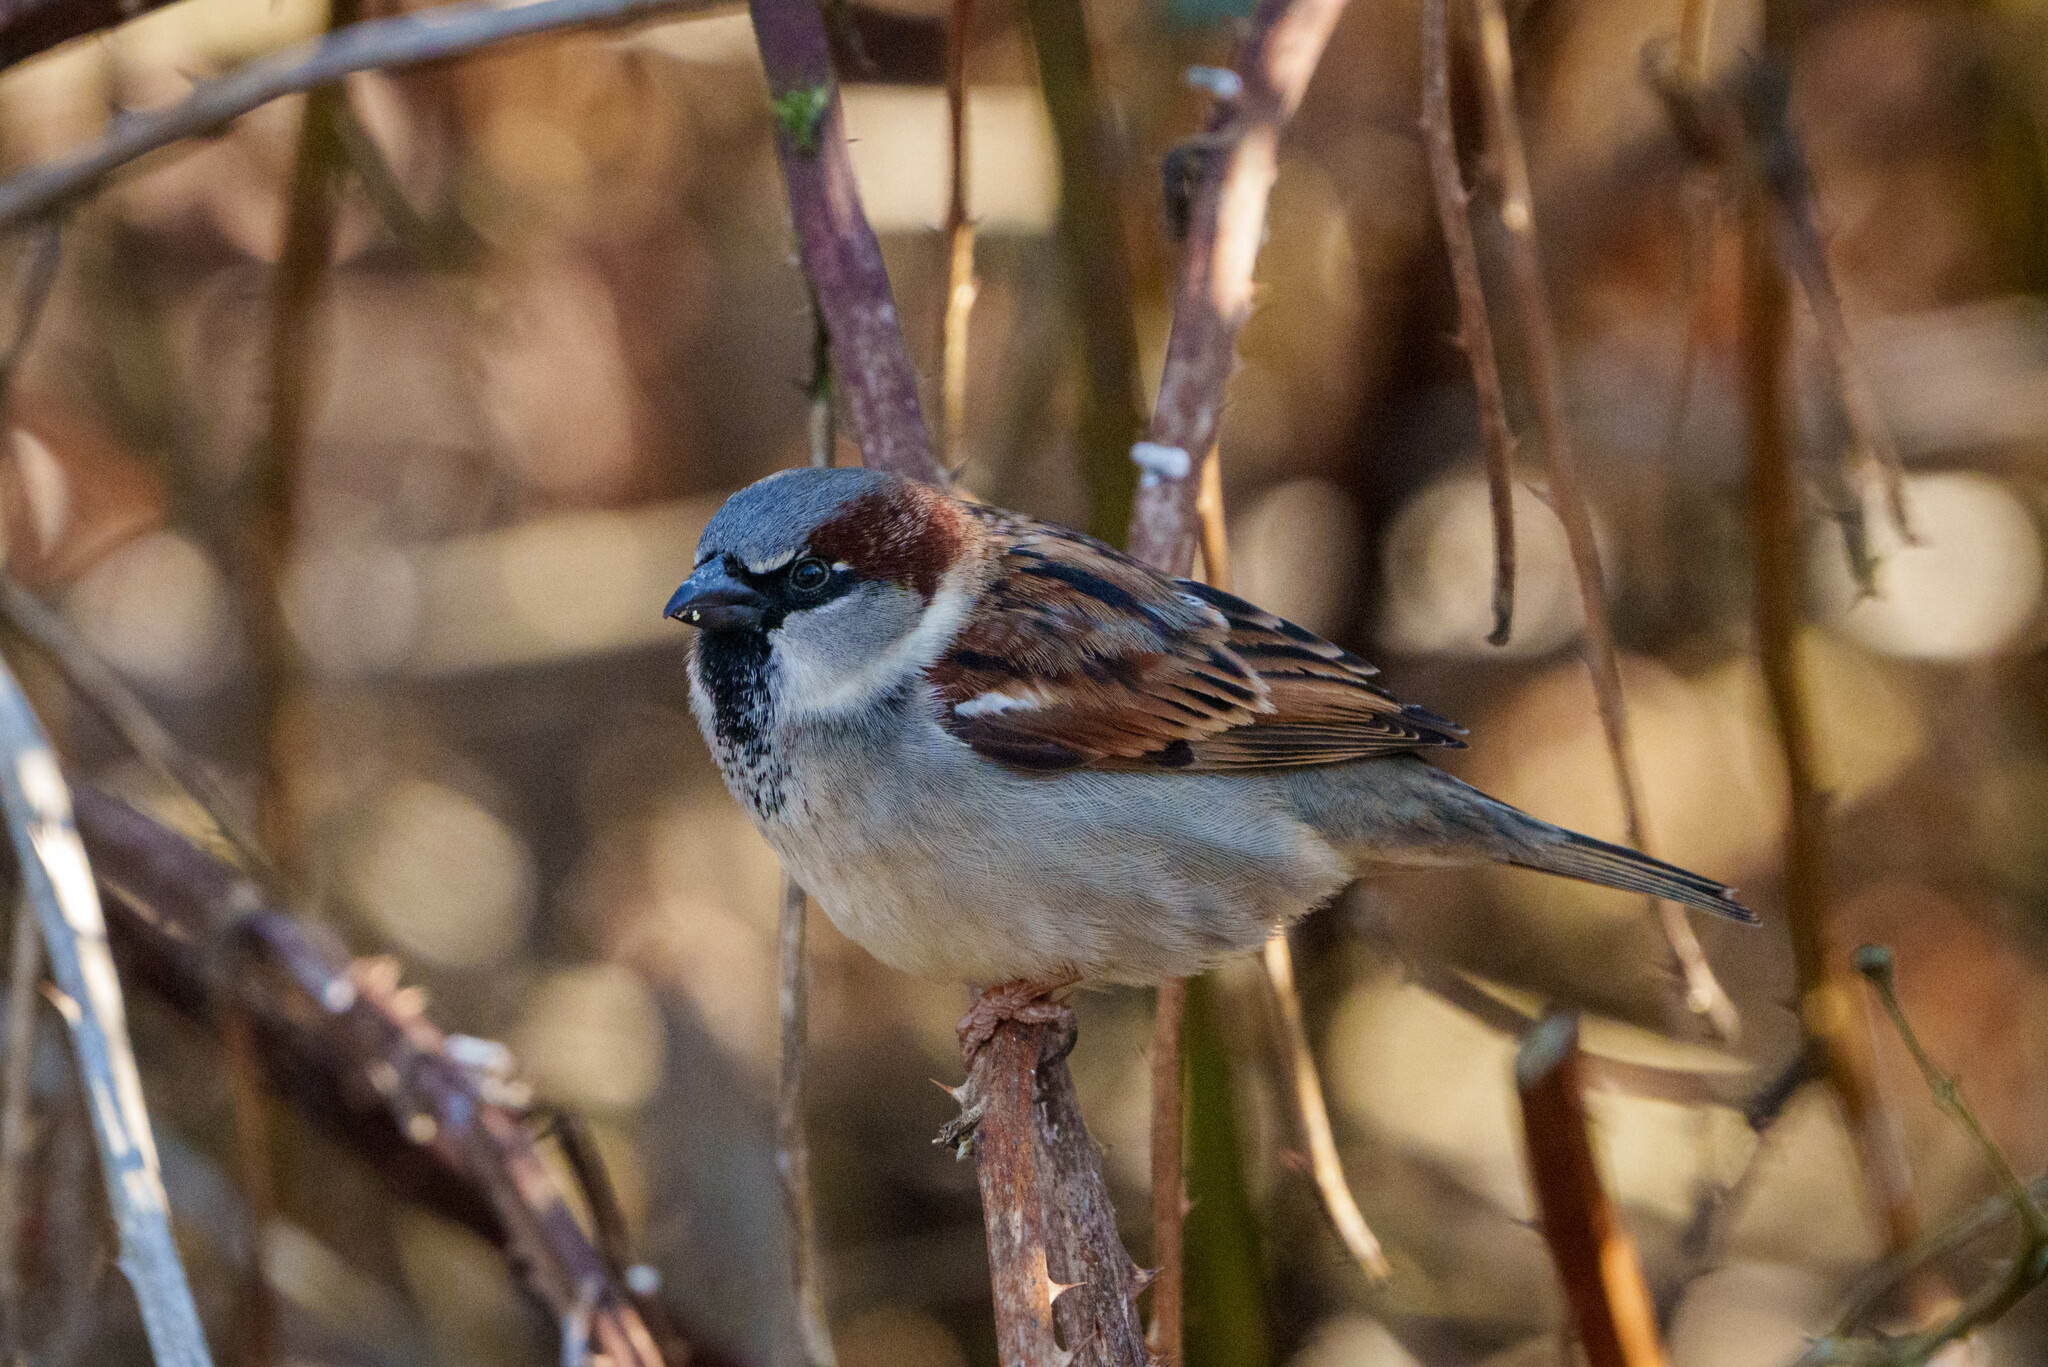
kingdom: Animalia
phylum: Chordata
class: Aves
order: Passeriformes
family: Passeridae
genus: Passer
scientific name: Passer domesticus
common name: House sparrow
